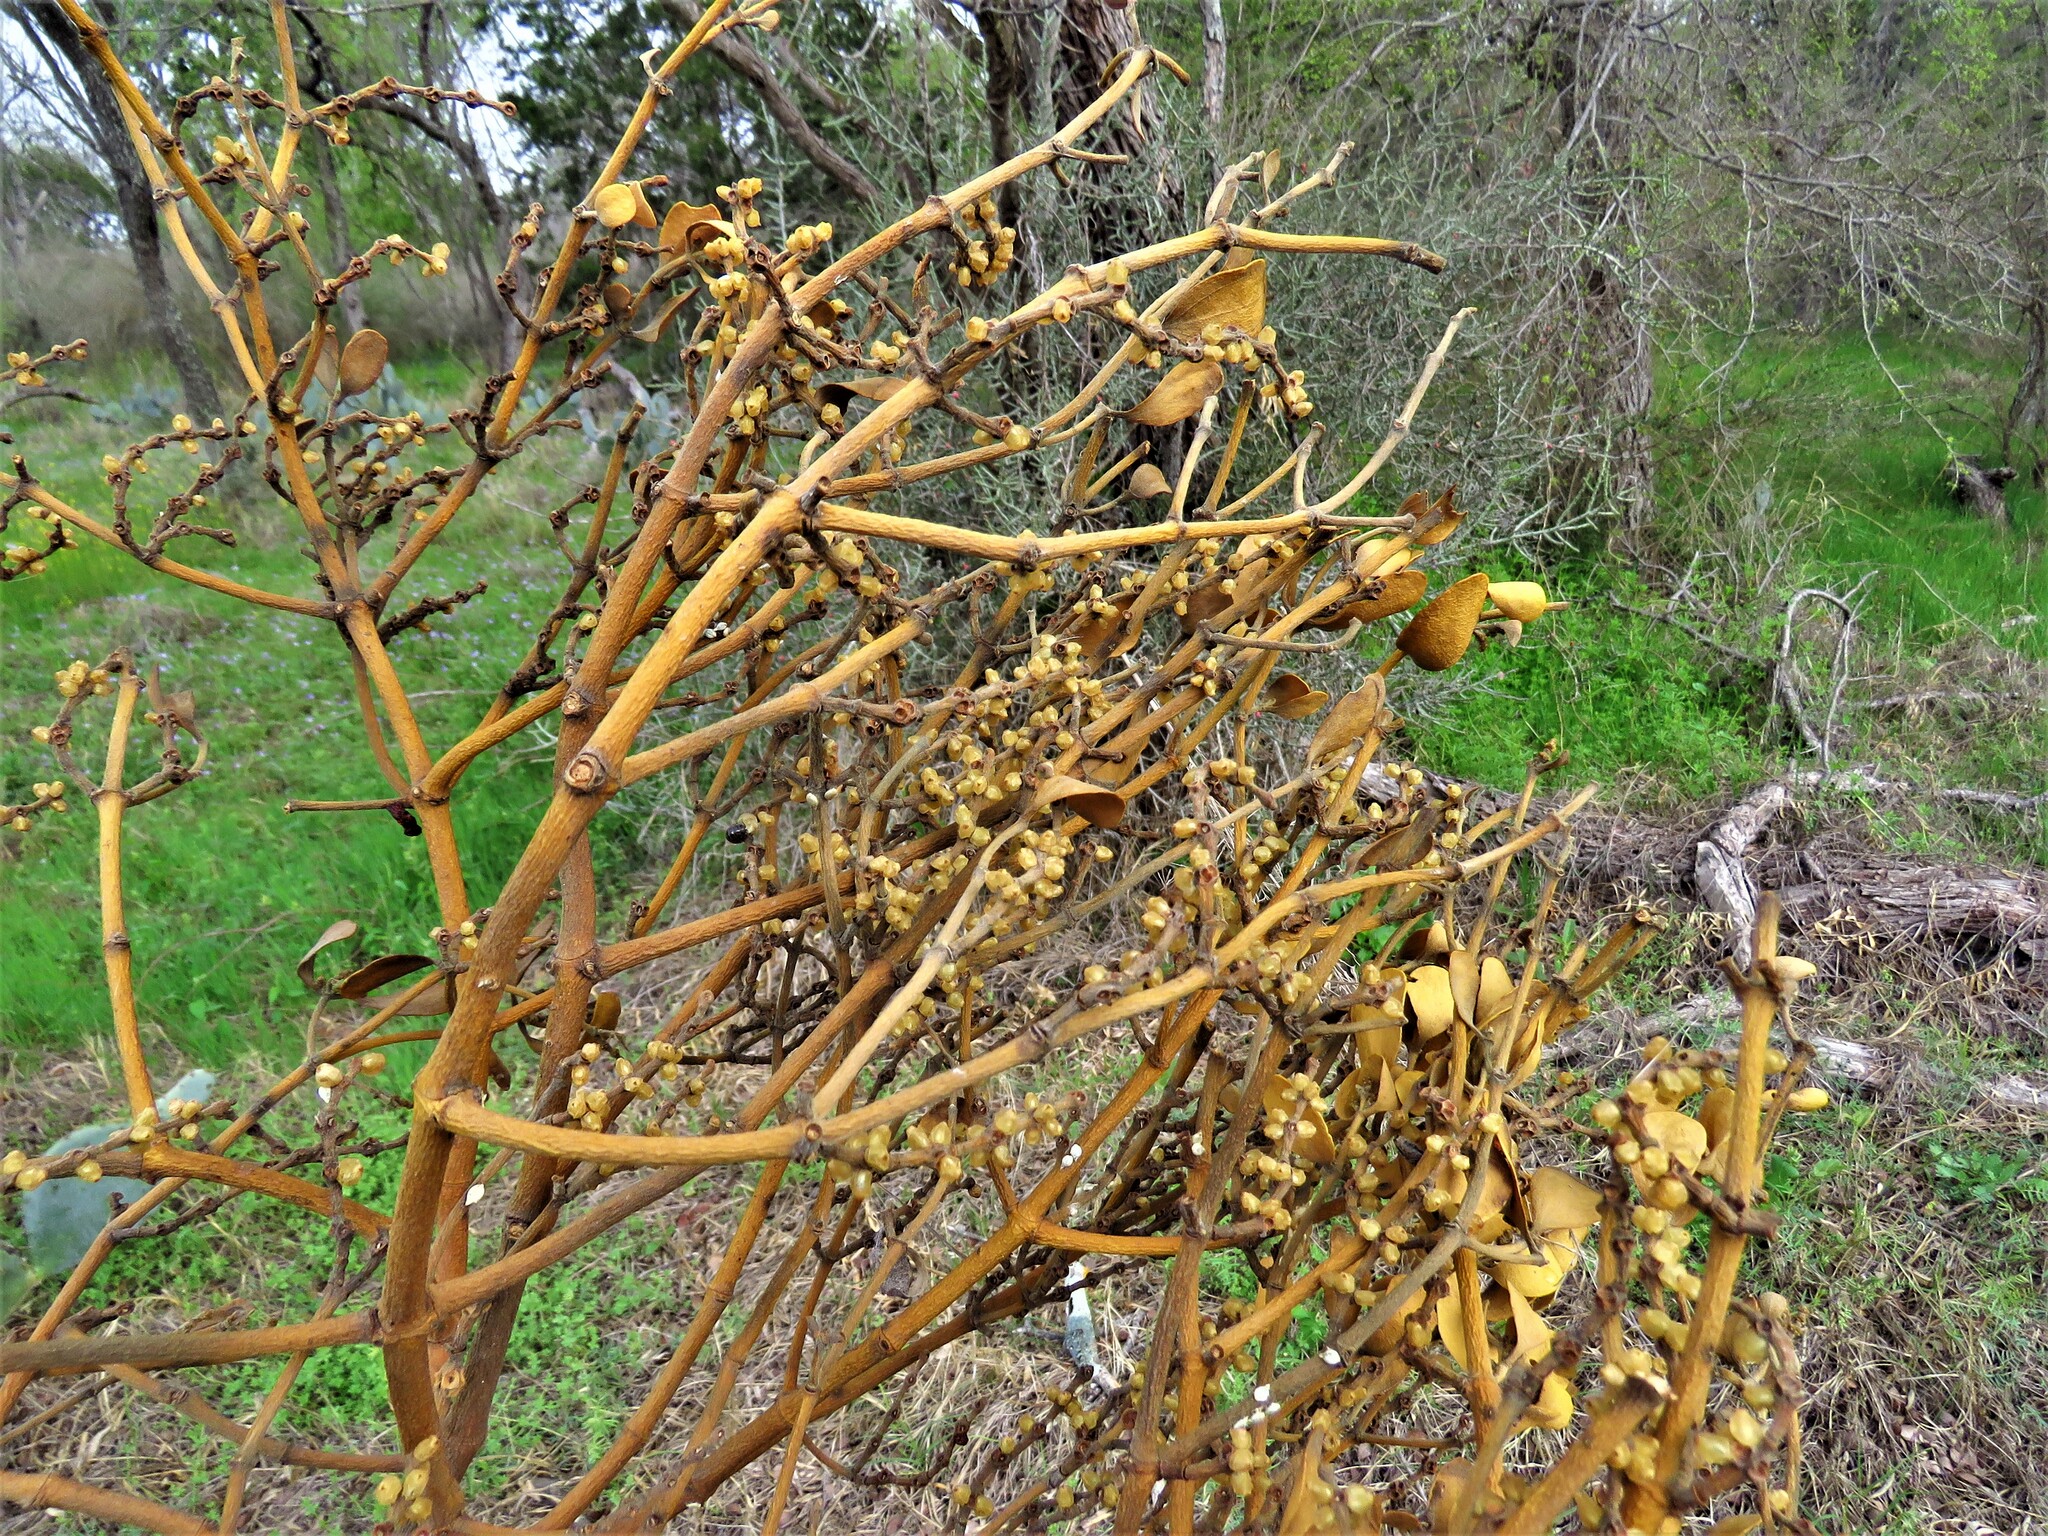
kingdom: Plantae
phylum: Tracheophyta
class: Magnoliopsida
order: Santalales
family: Viscaceae
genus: Phoradendron
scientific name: Phoradendron leucarpum
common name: Pacific mistletoe
